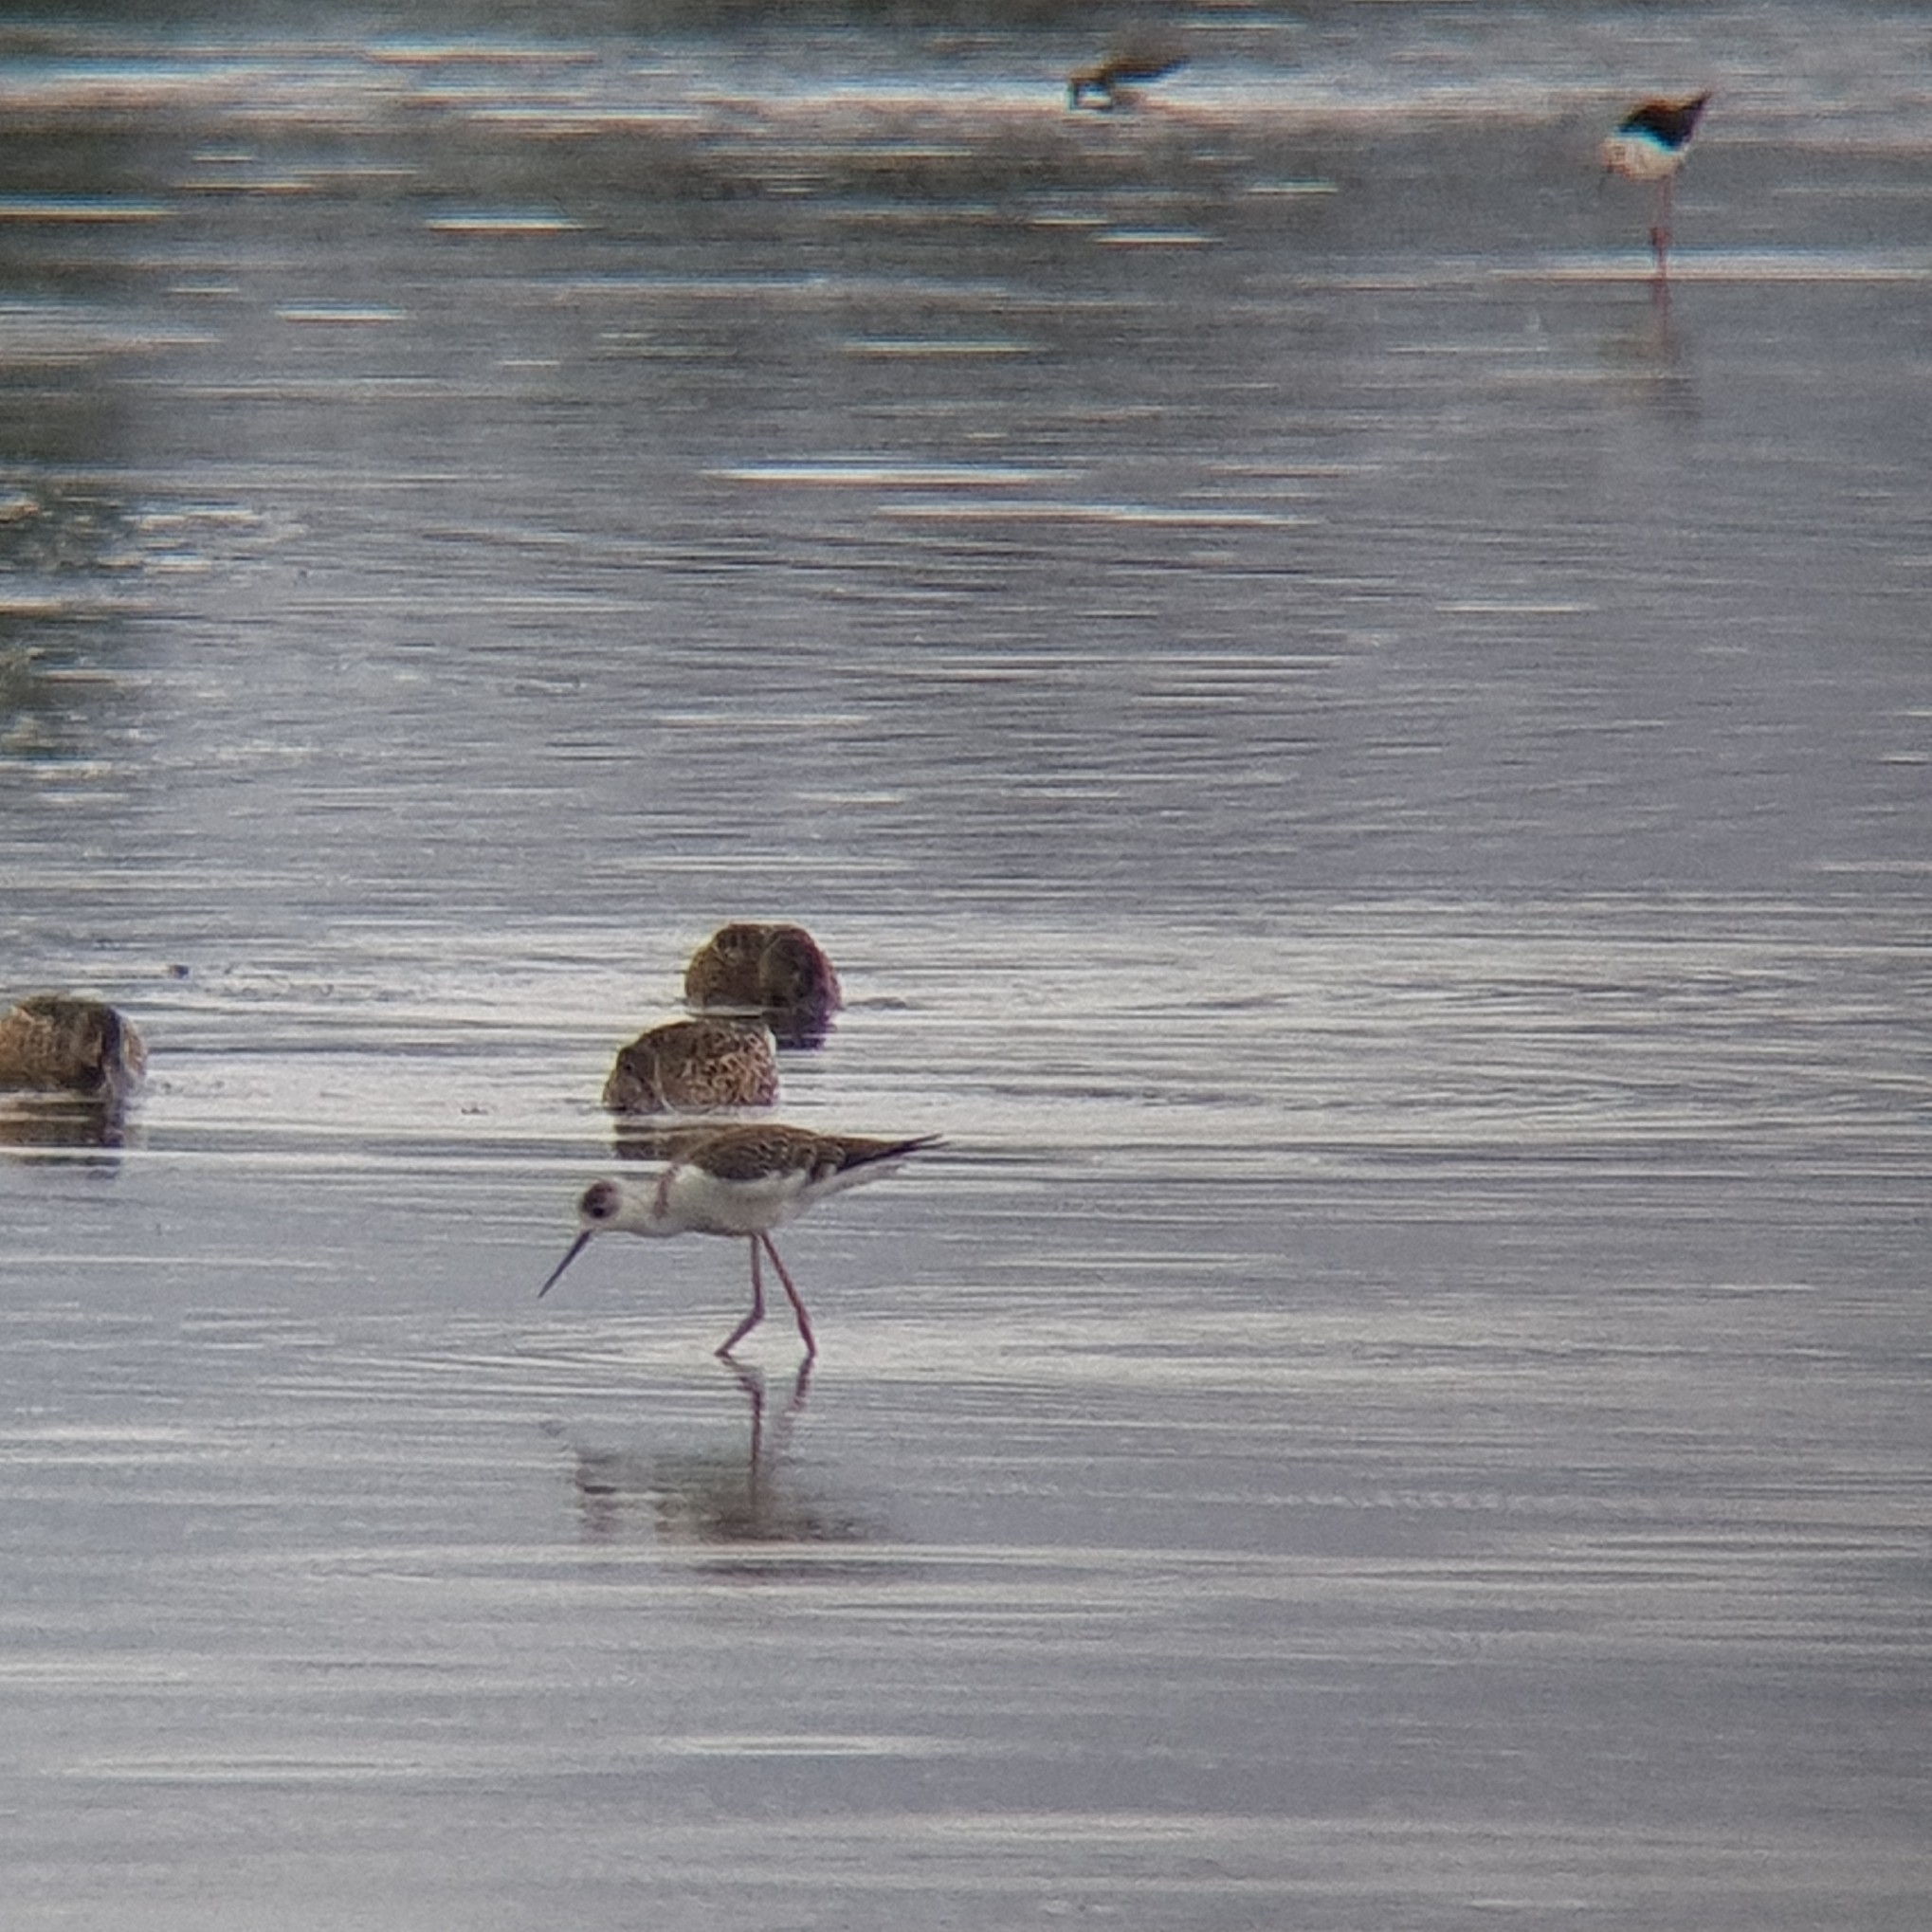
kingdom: Animalia
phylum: Chordata
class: Aves
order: Charadriiformes
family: Recurvirostridae
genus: Himantopus
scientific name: Himantopus himantopus
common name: Black-winged stilt
